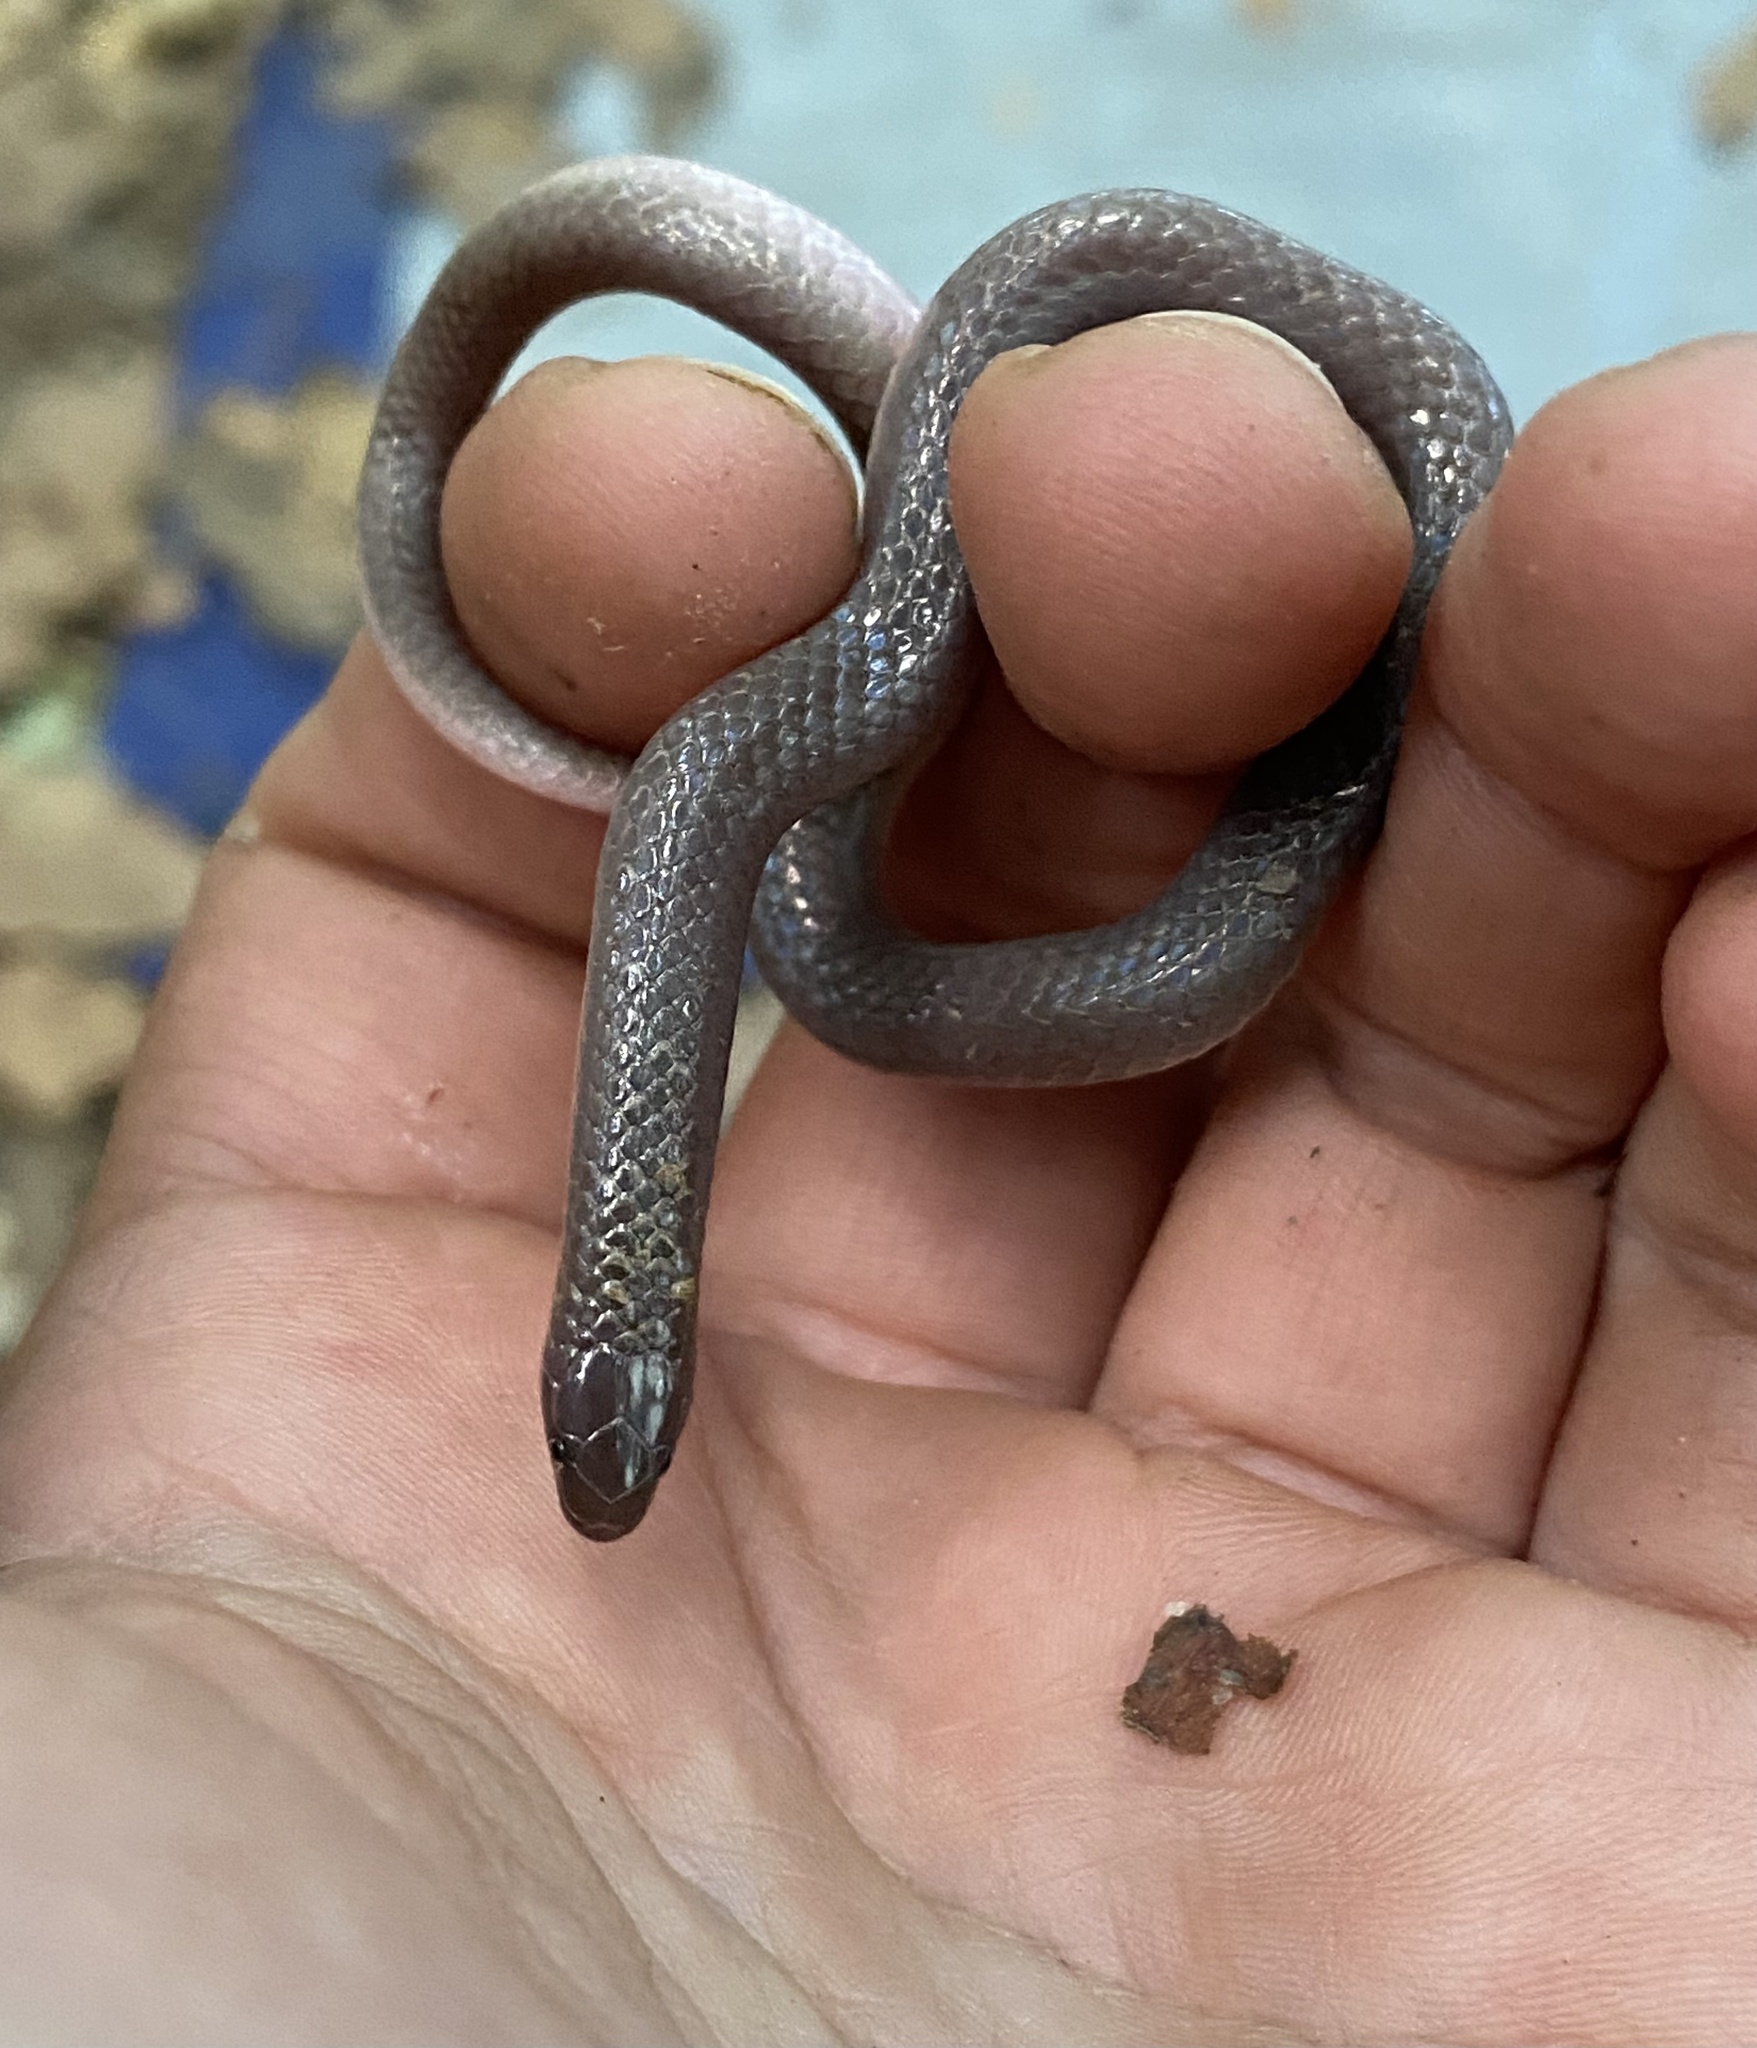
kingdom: Animalia
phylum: Chordata
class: Squamata
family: Colubridae
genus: Carphophis
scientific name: Carphophis amoenus
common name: Eastern worm snake
